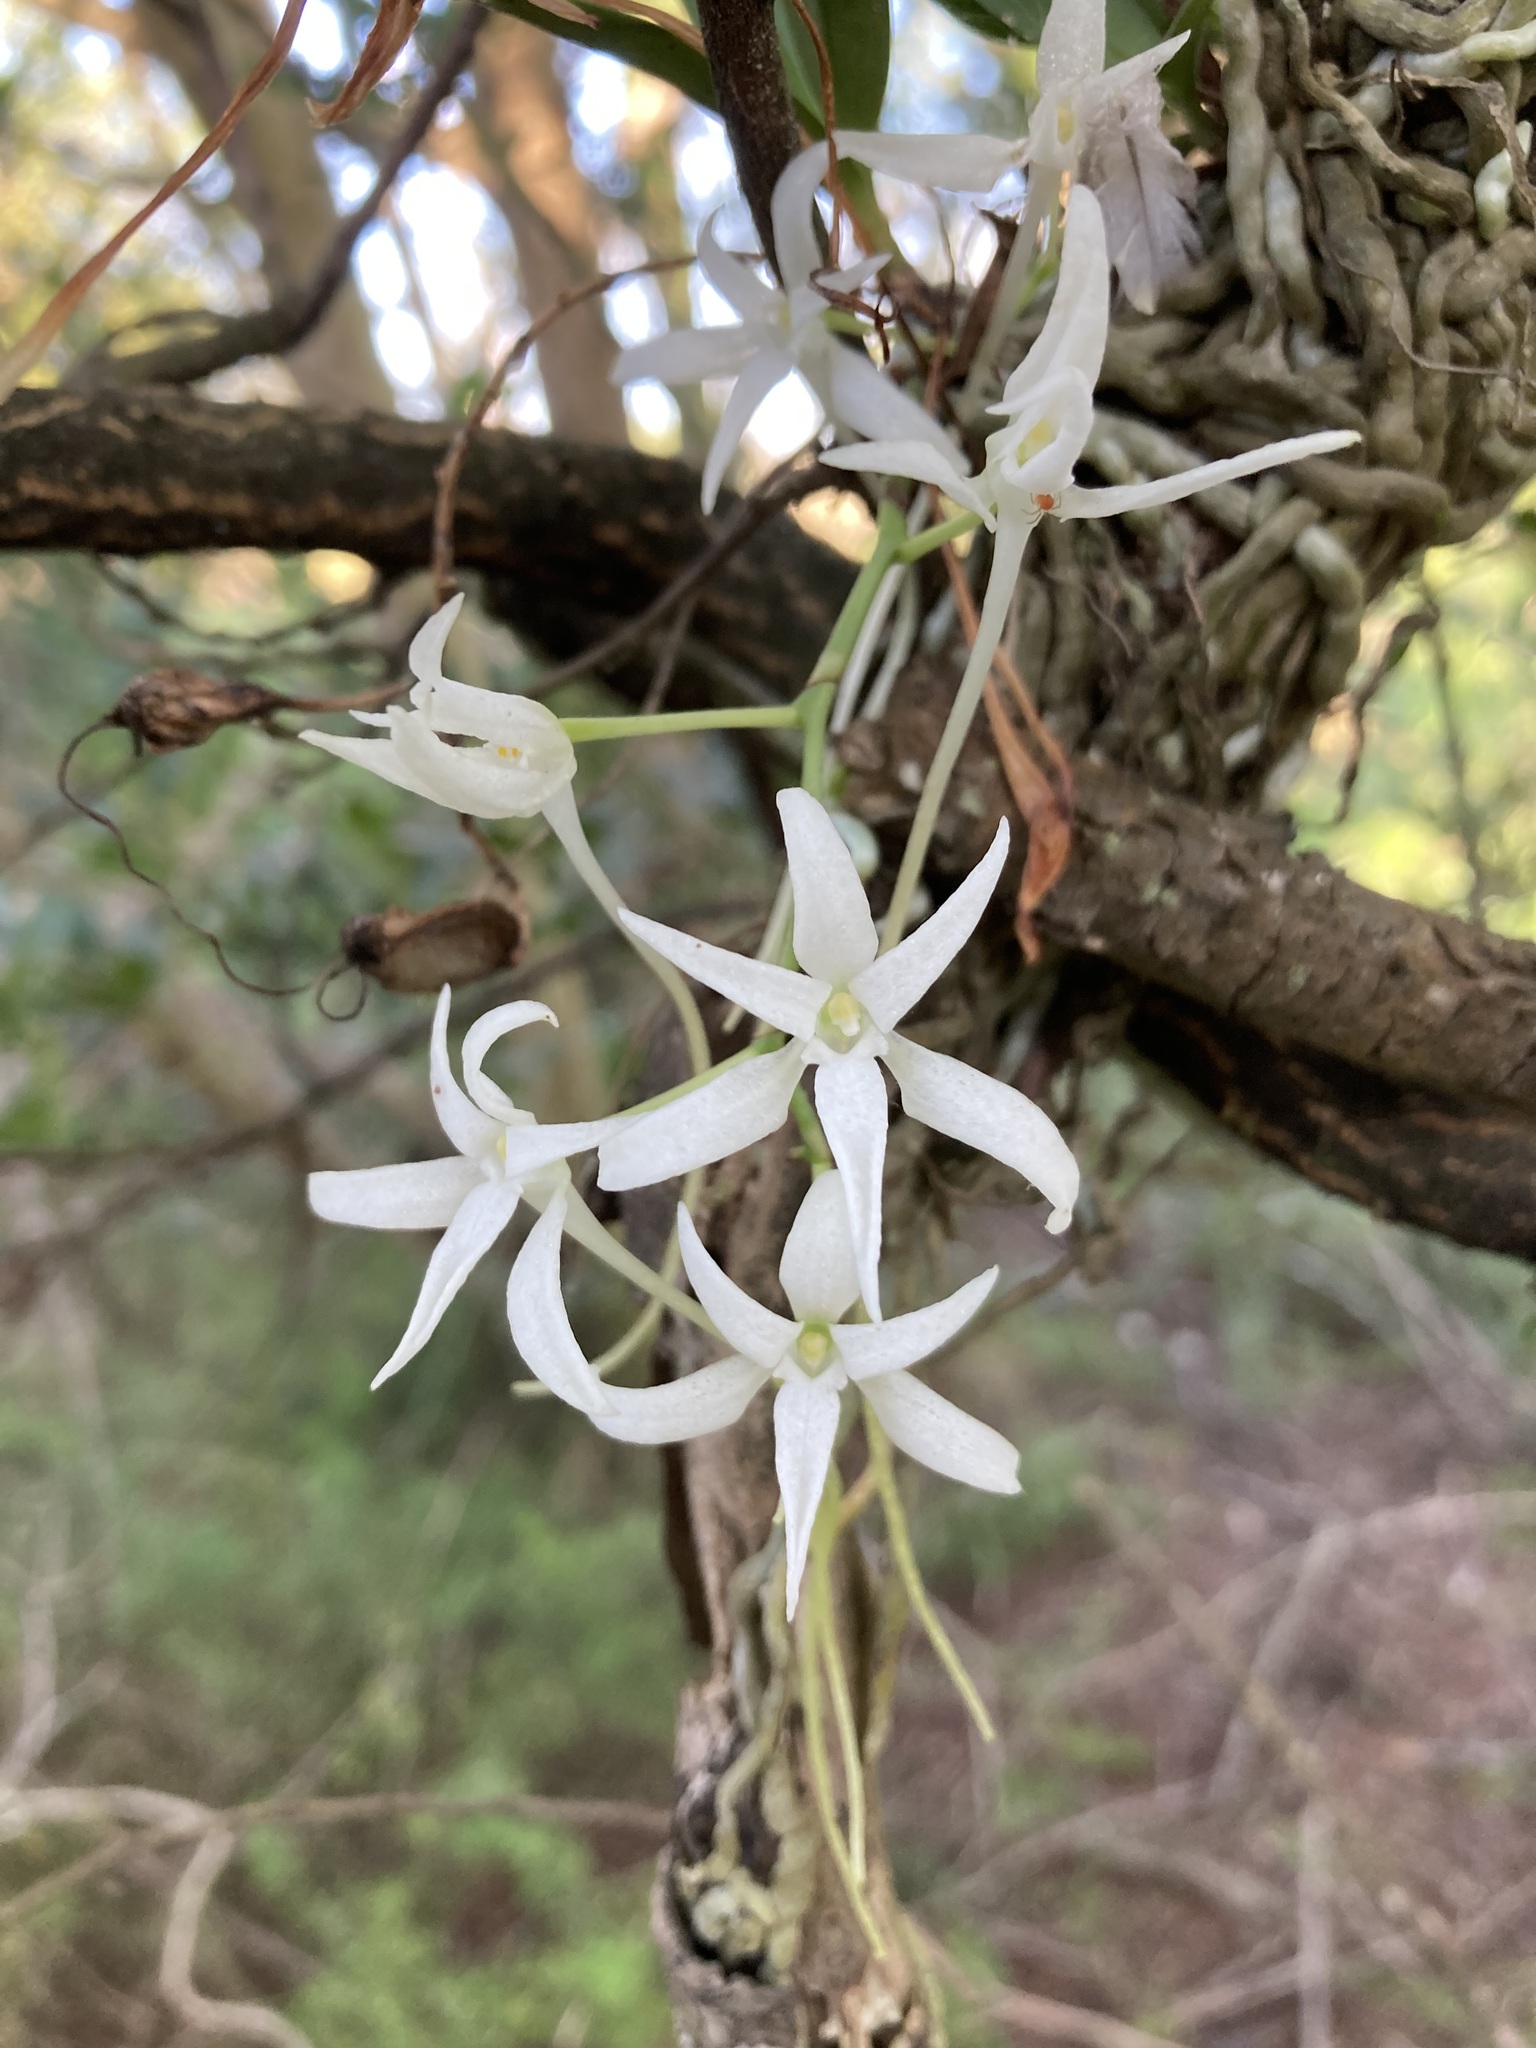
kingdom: Plantae
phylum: Tracheophyta
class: Liliopsida
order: Asparagales
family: Orchidaceae
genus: Mystacidium
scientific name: Mystacidium capense
